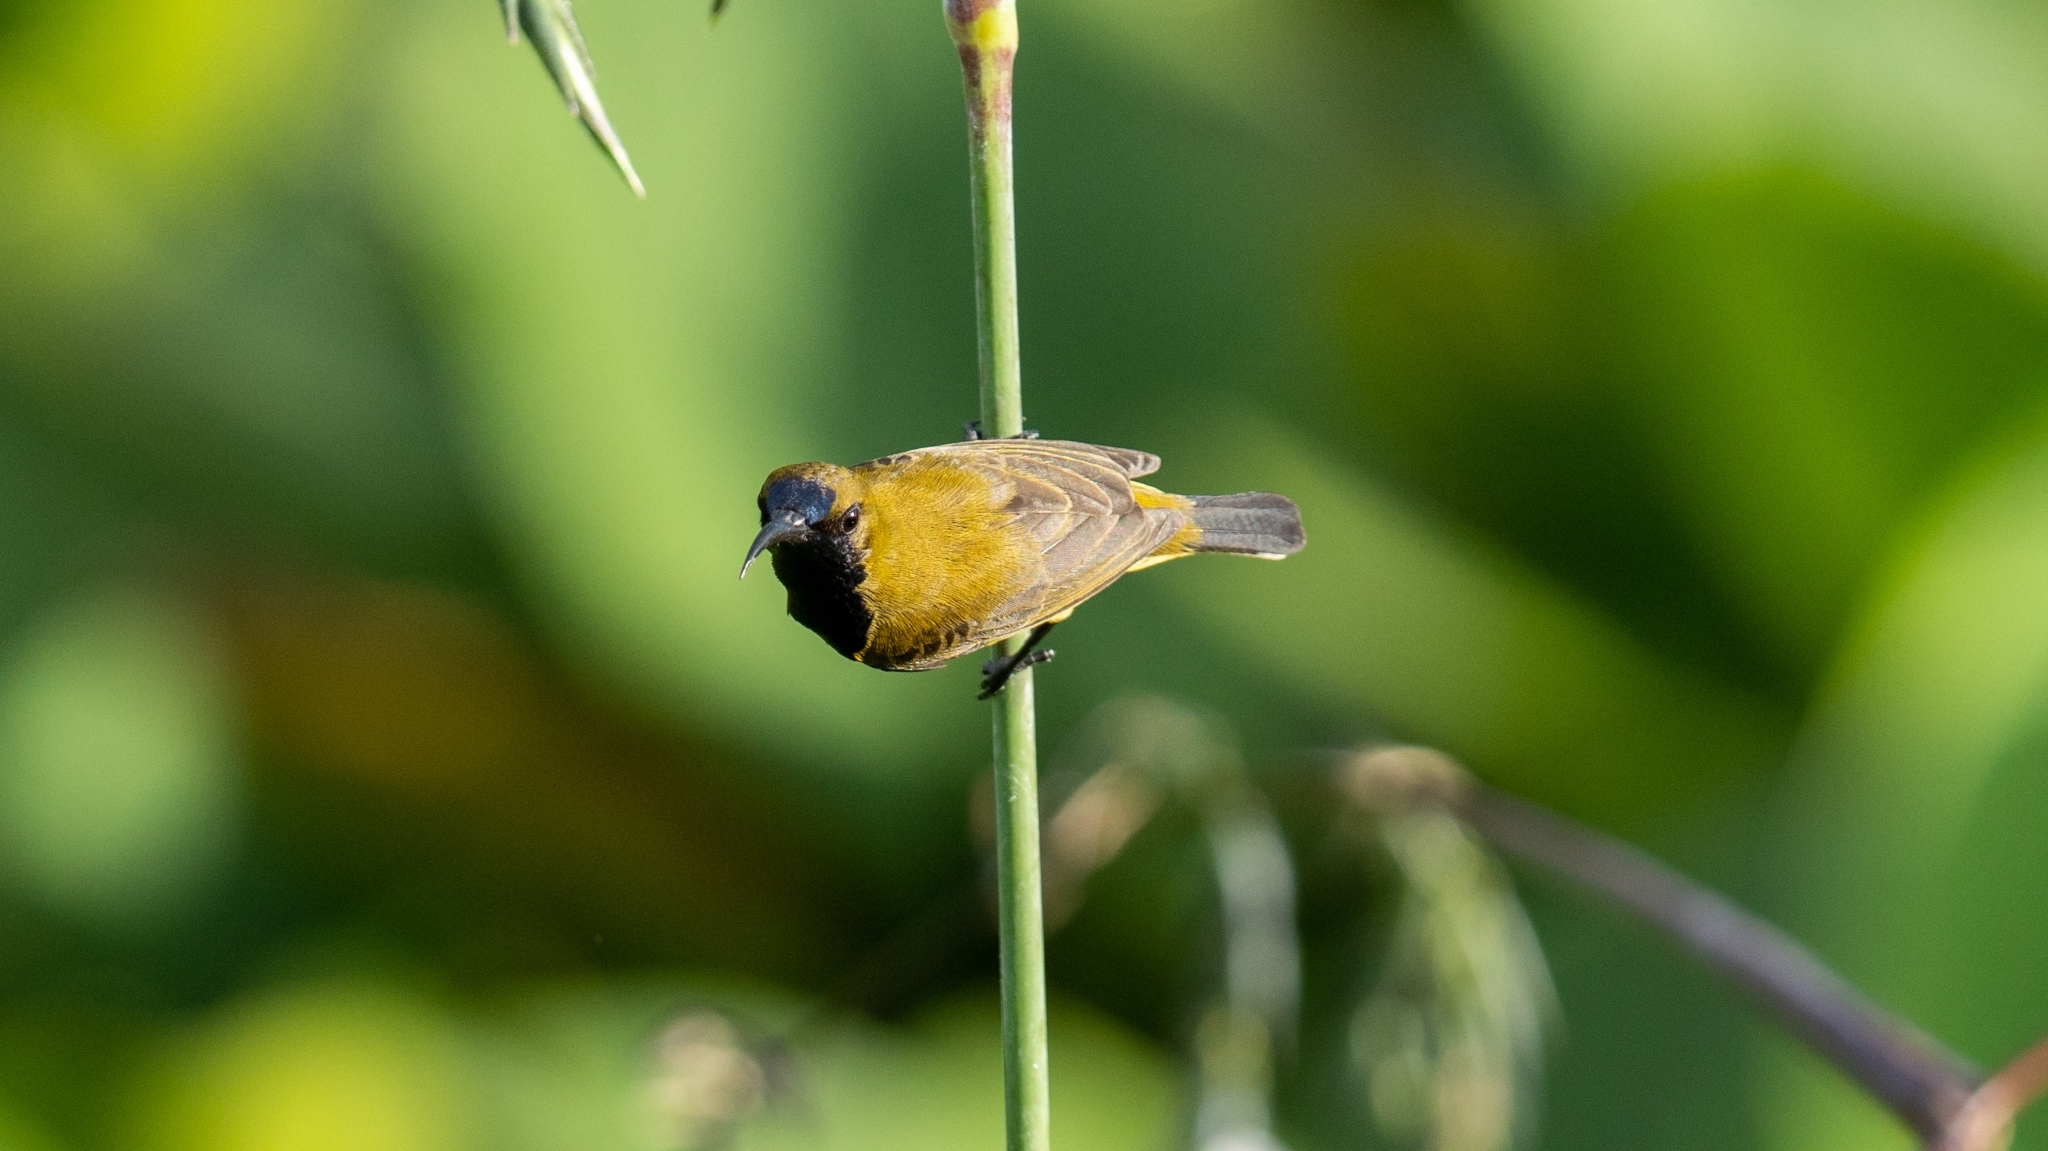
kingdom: Animalia
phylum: Chordata
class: Aves
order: Passeriformes
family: Nectariniidae
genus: Cinnyris
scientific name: Cinnyris
